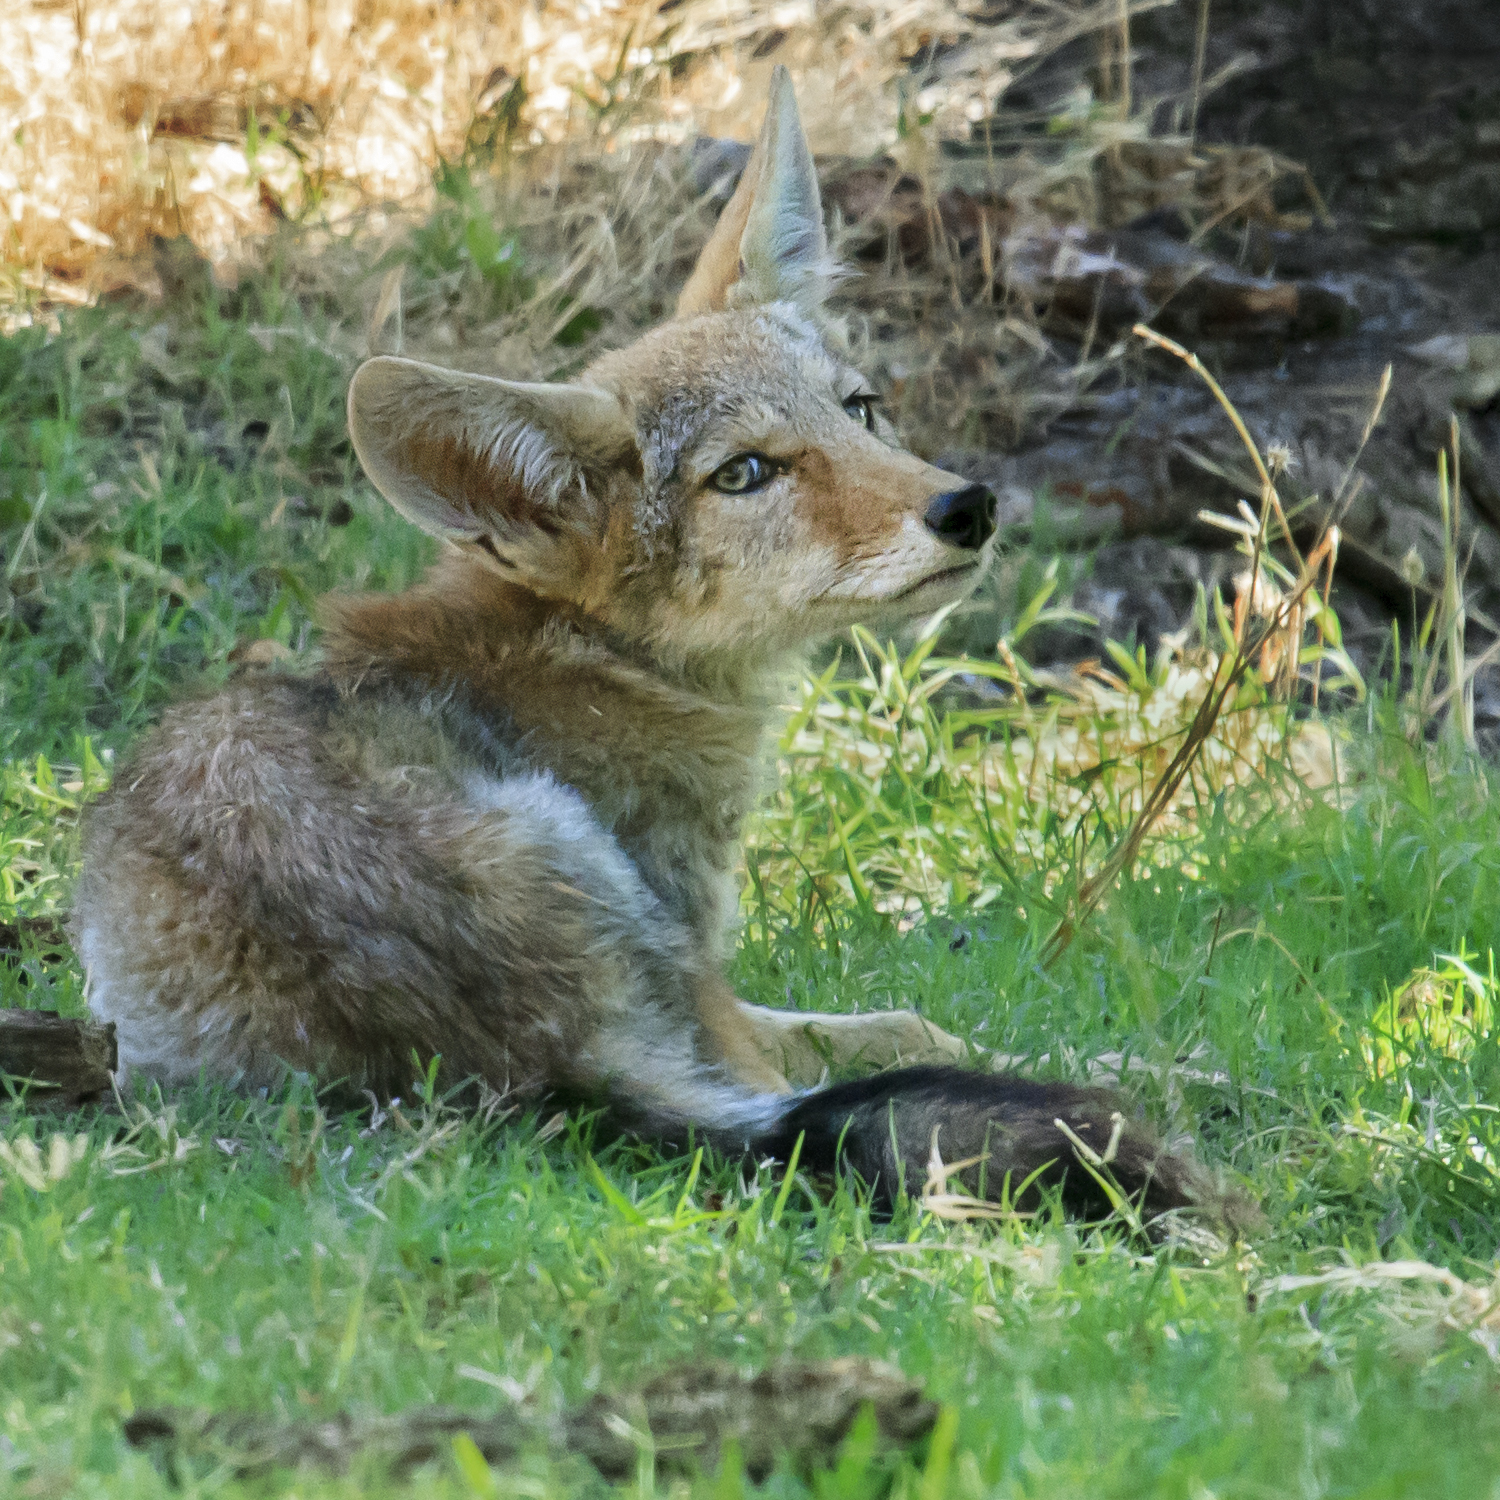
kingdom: Animalia
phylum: Chordata
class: Mammalia
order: Carnivora
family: Canidae
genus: Canis
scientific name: Canis latrans
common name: Coyote
